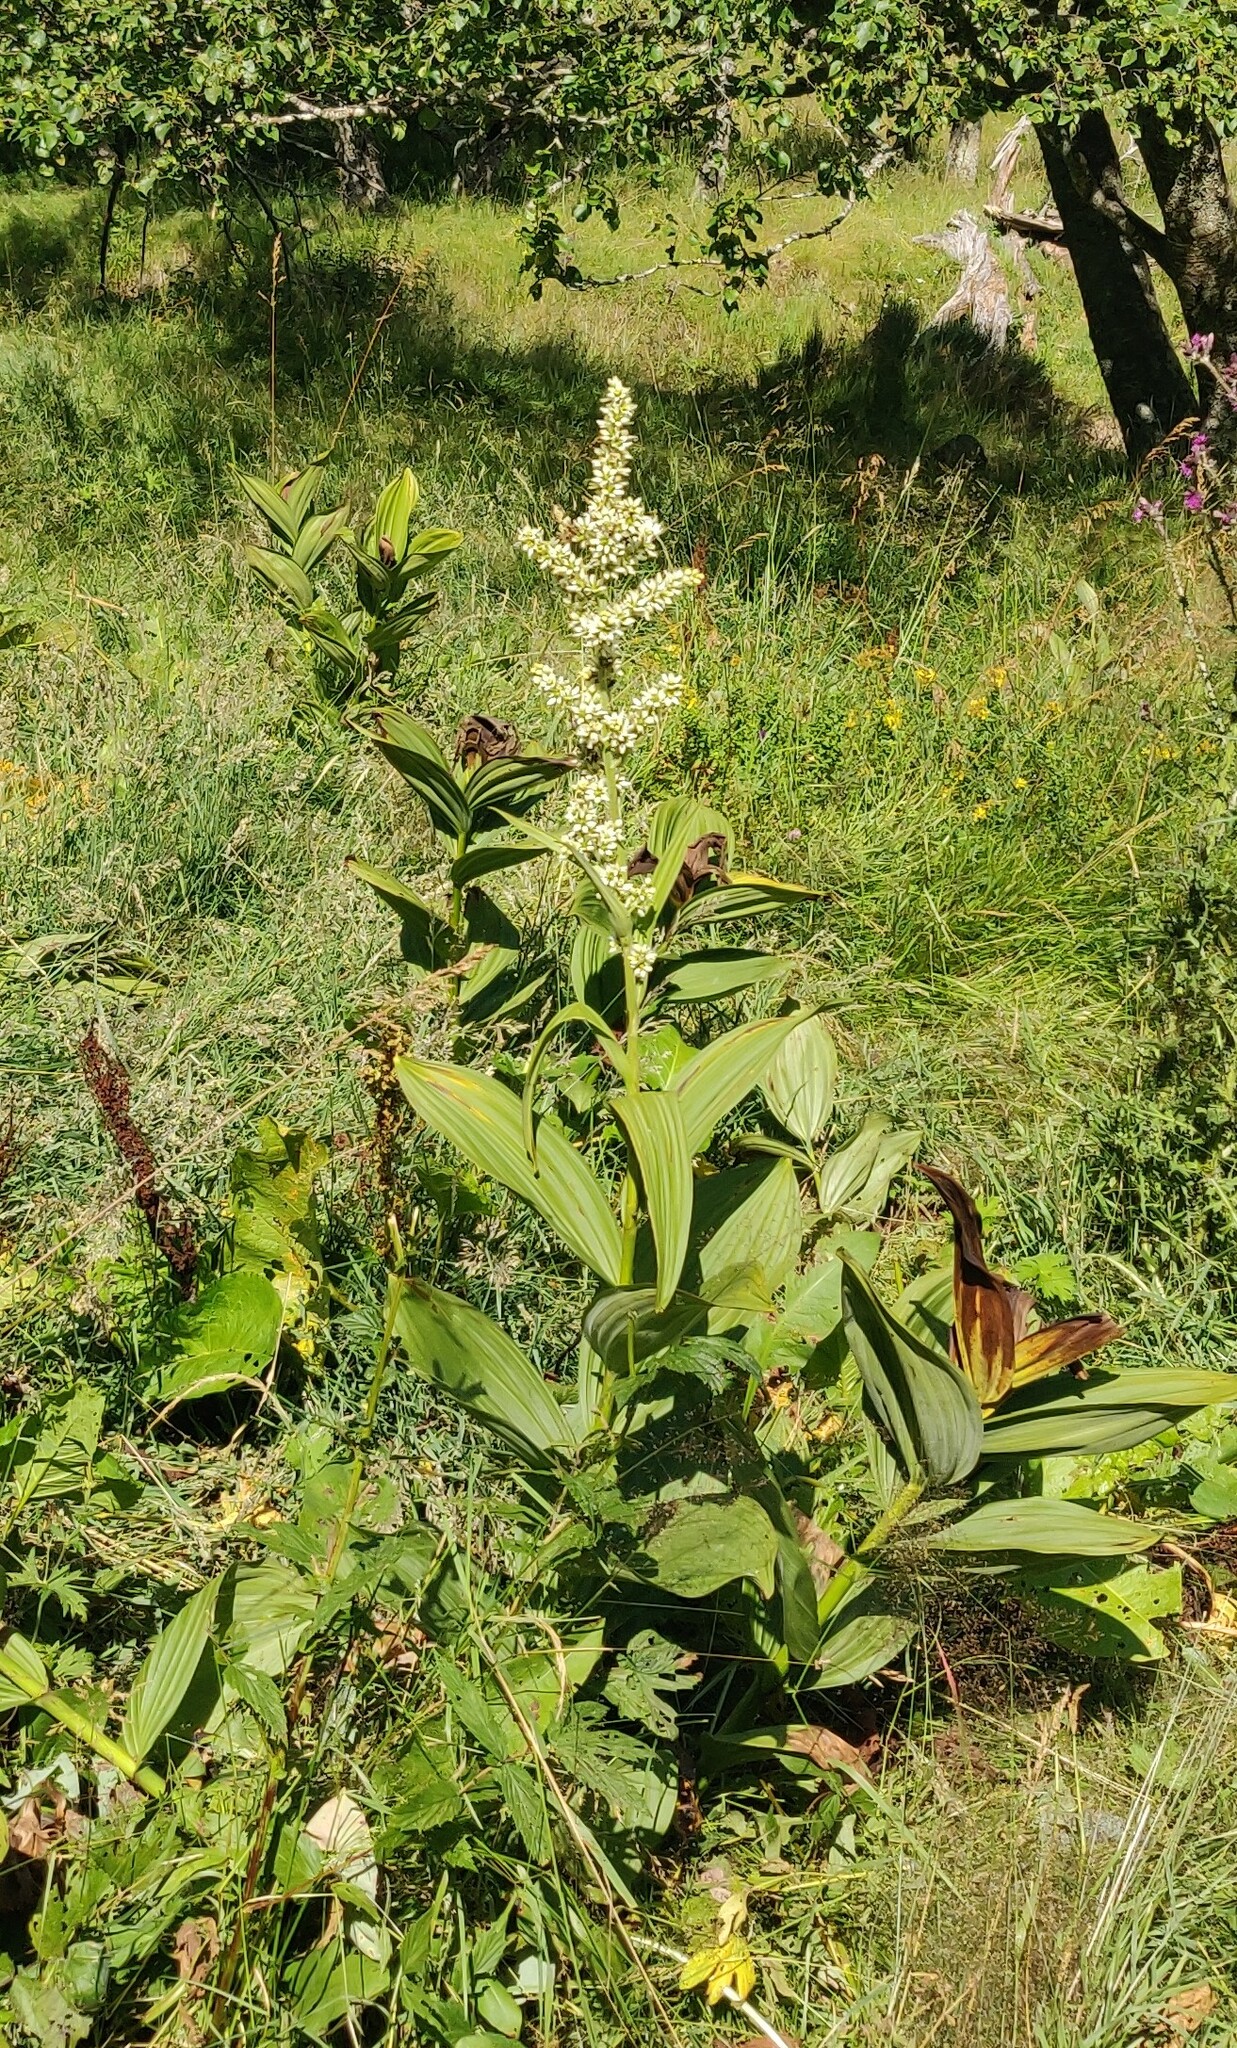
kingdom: Plantae
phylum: Tracheophyta
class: Liliopsida
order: Liliales
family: Melanthiaceae
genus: Veratrum
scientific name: Veratrum album
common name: White veratrum
